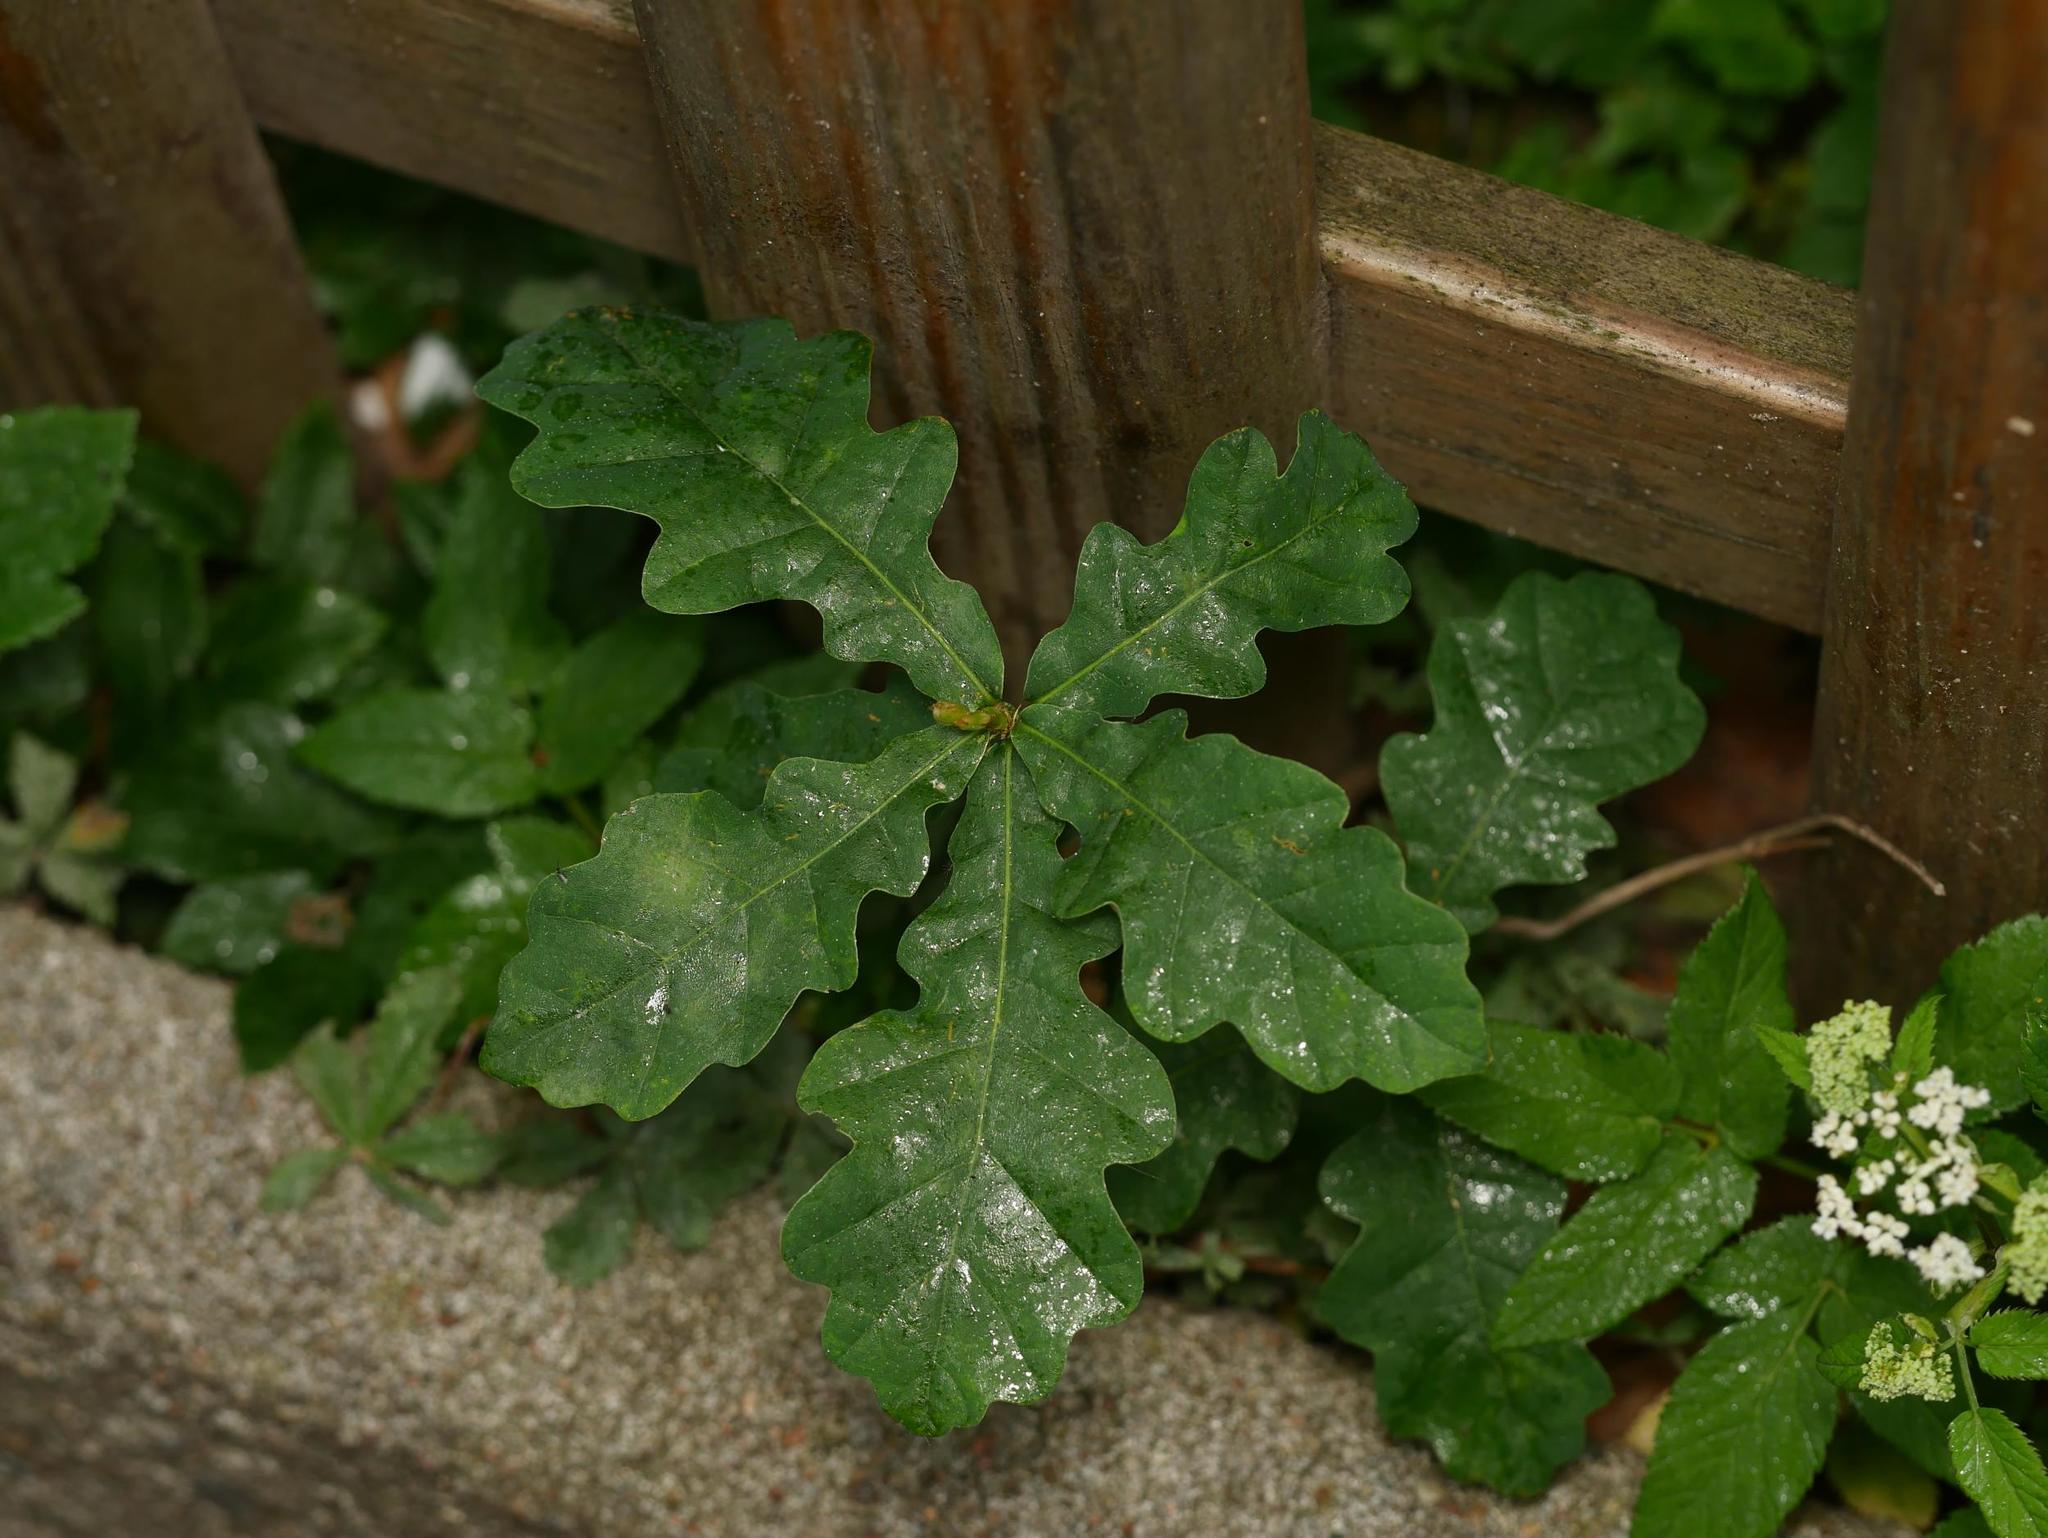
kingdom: Plantae
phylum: Tracheophyta
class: Magnoliopsida
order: Fagales
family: Fagaceae
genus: Quercus
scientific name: Quercus robur
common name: Pedunculate oak
